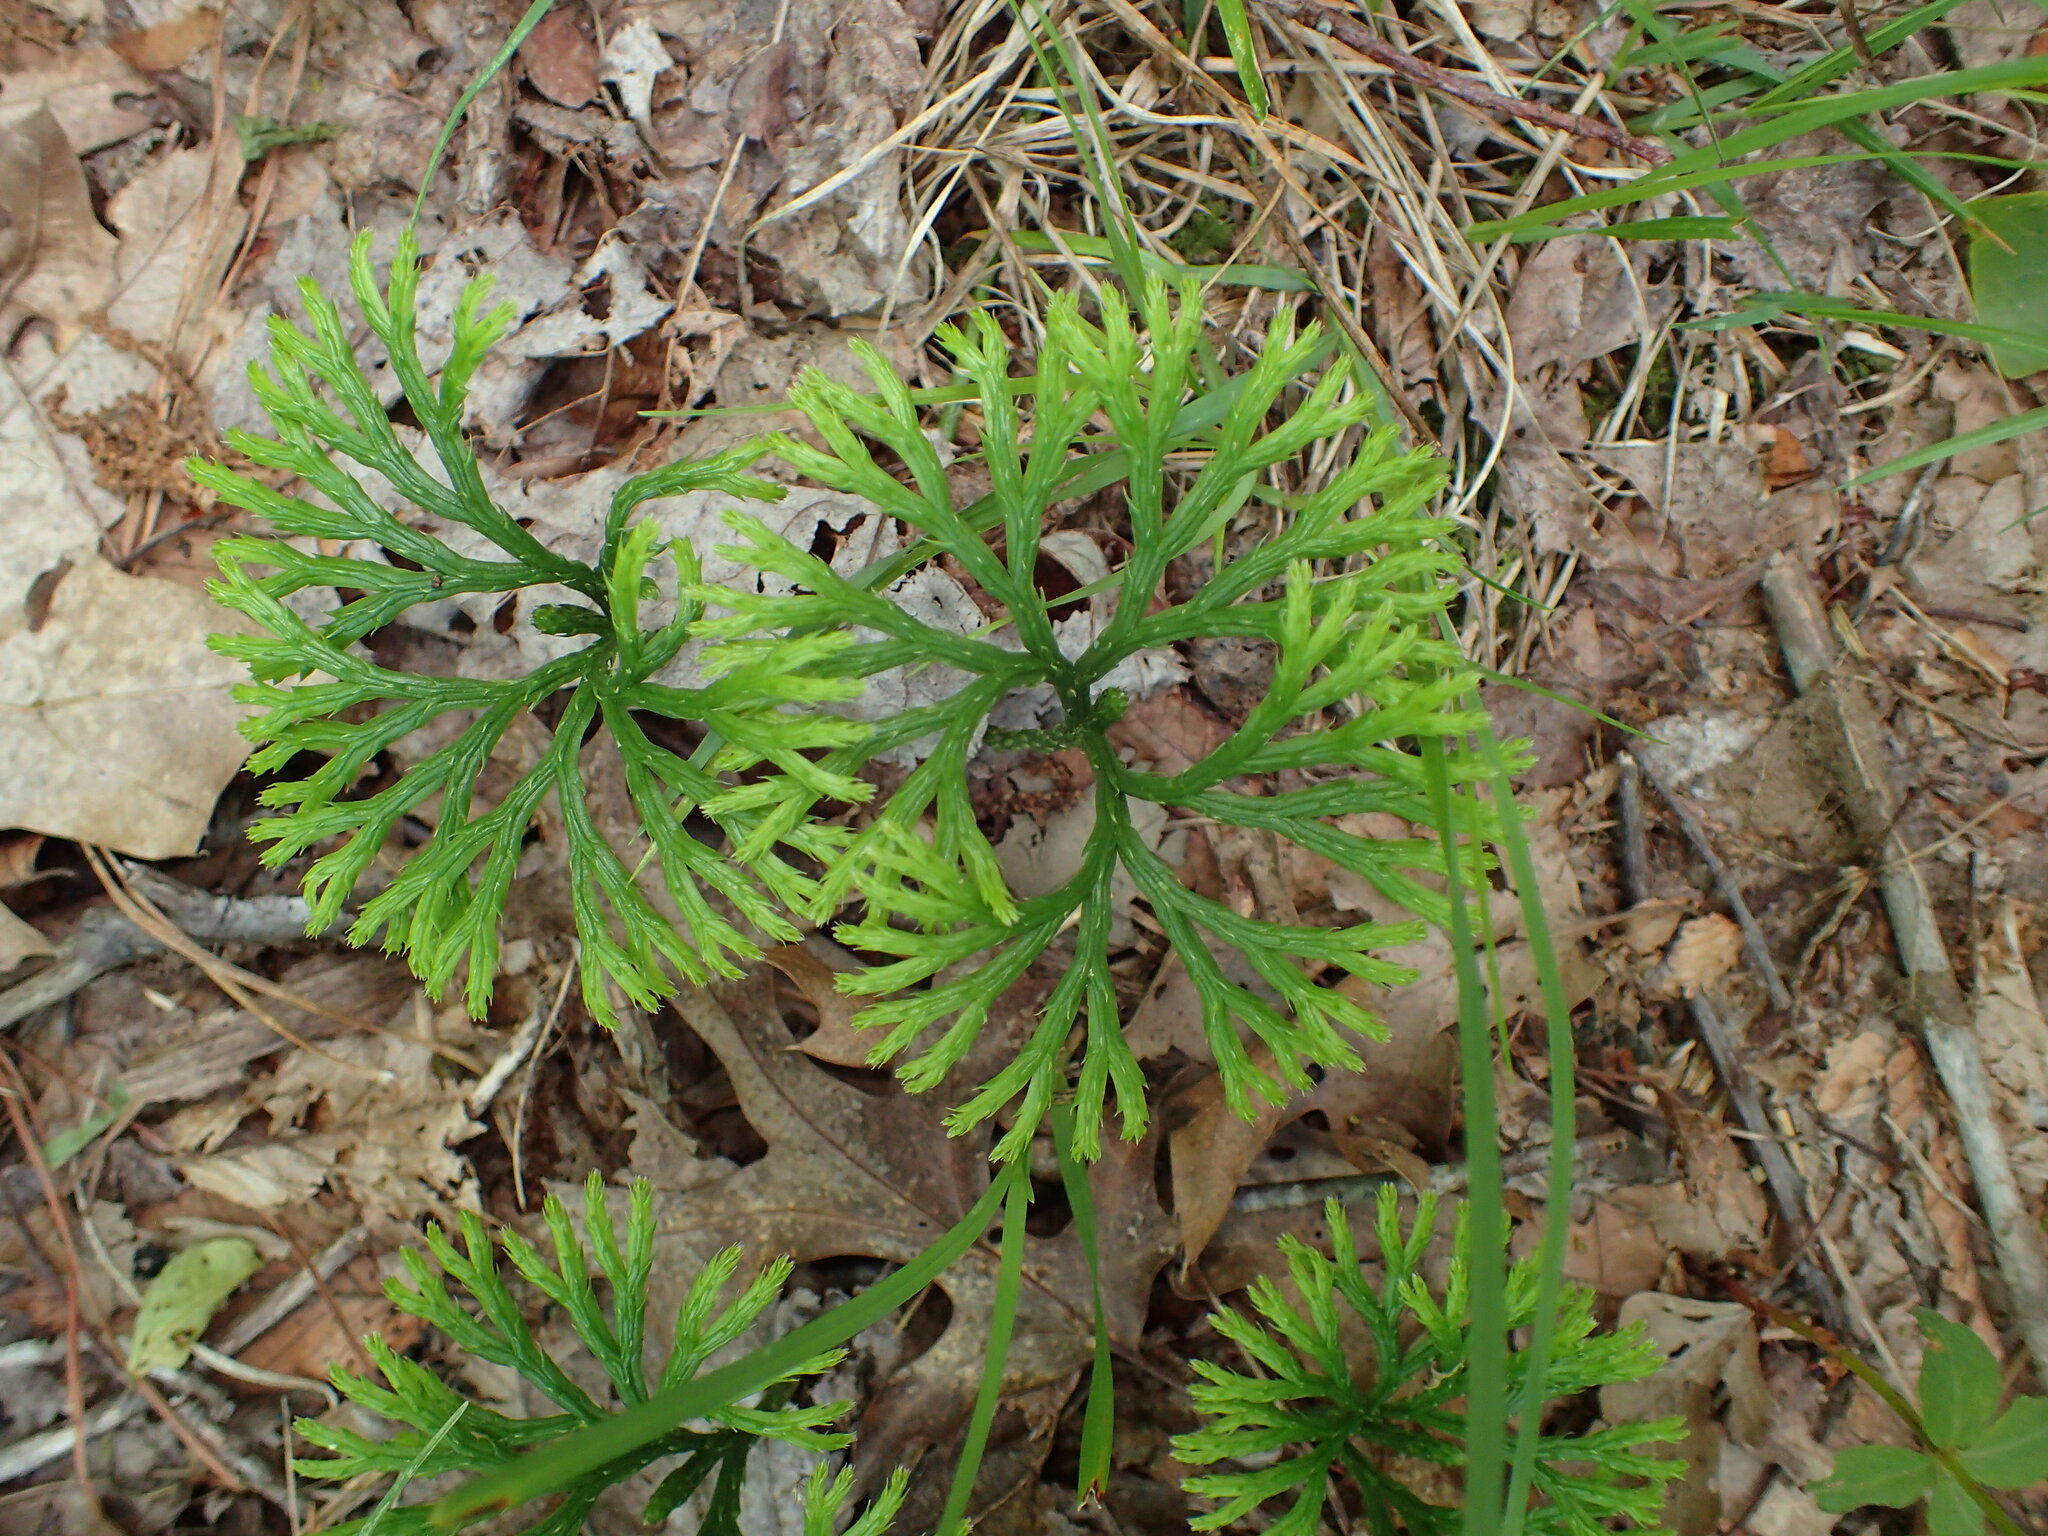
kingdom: Plantae
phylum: Tracheophyta
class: Lycopodiopsida
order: Lycopodiales
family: Lycopodiaceae
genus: Diphasiastrum
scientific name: Diphasiastrum digitatum
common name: Southern running-pine
